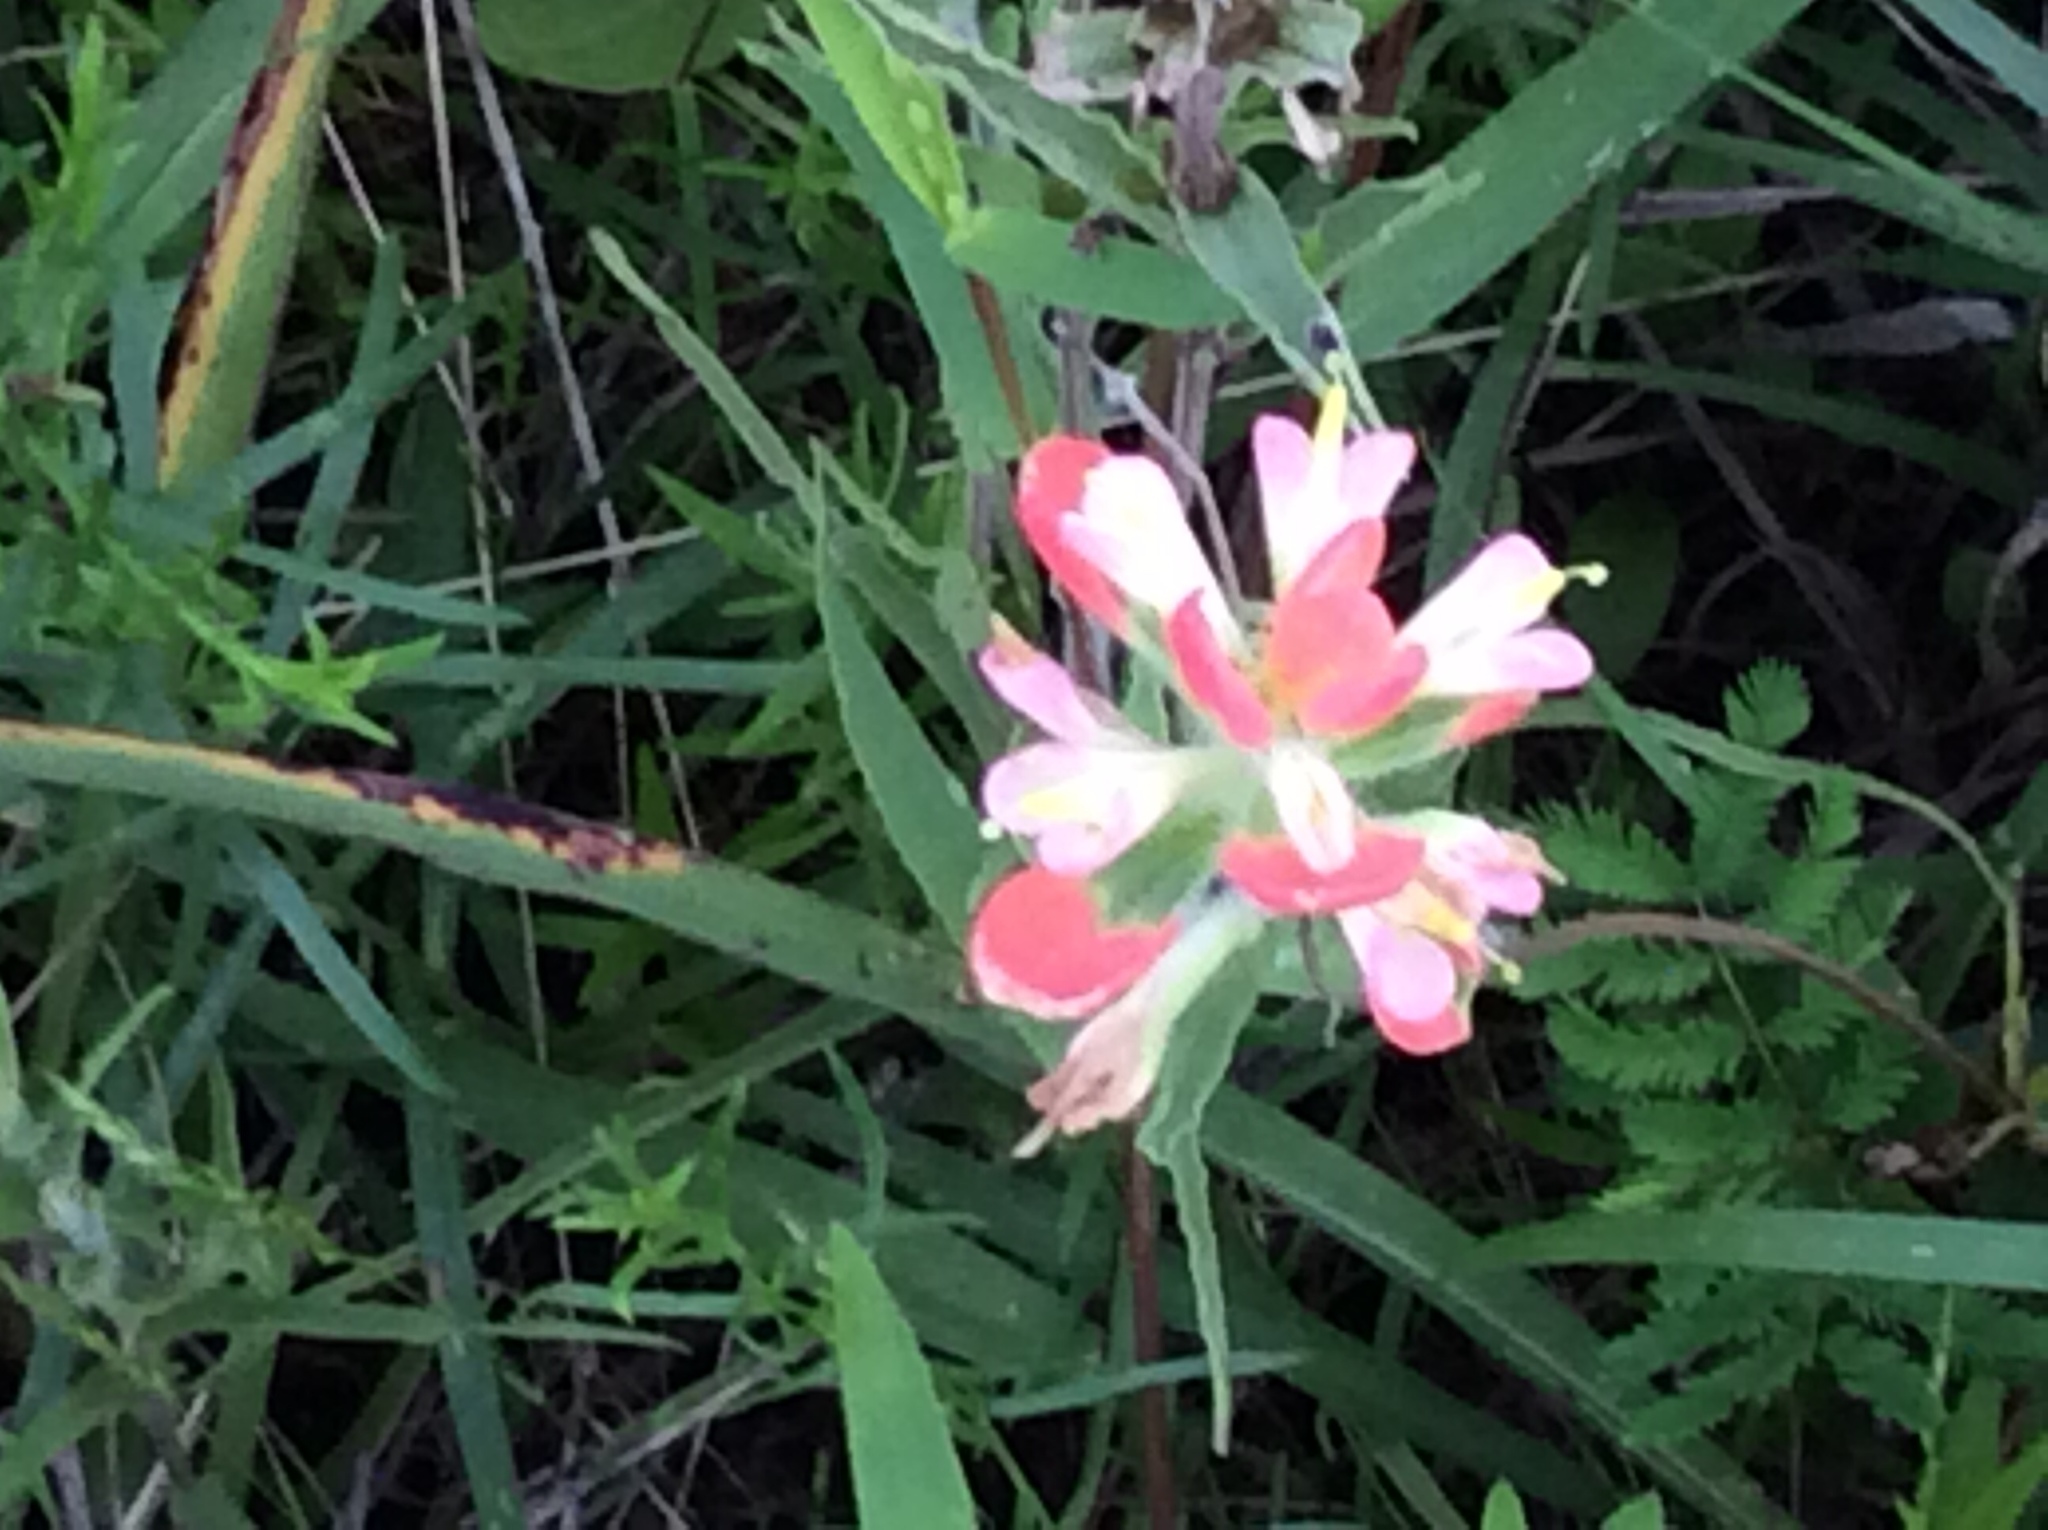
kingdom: Plantae
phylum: Tracheophyta
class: Magnoliopsida
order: Lamiales
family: Orobanchaceae
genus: Castilleja
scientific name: Castilleja indivisa
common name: Texas paintbrush
